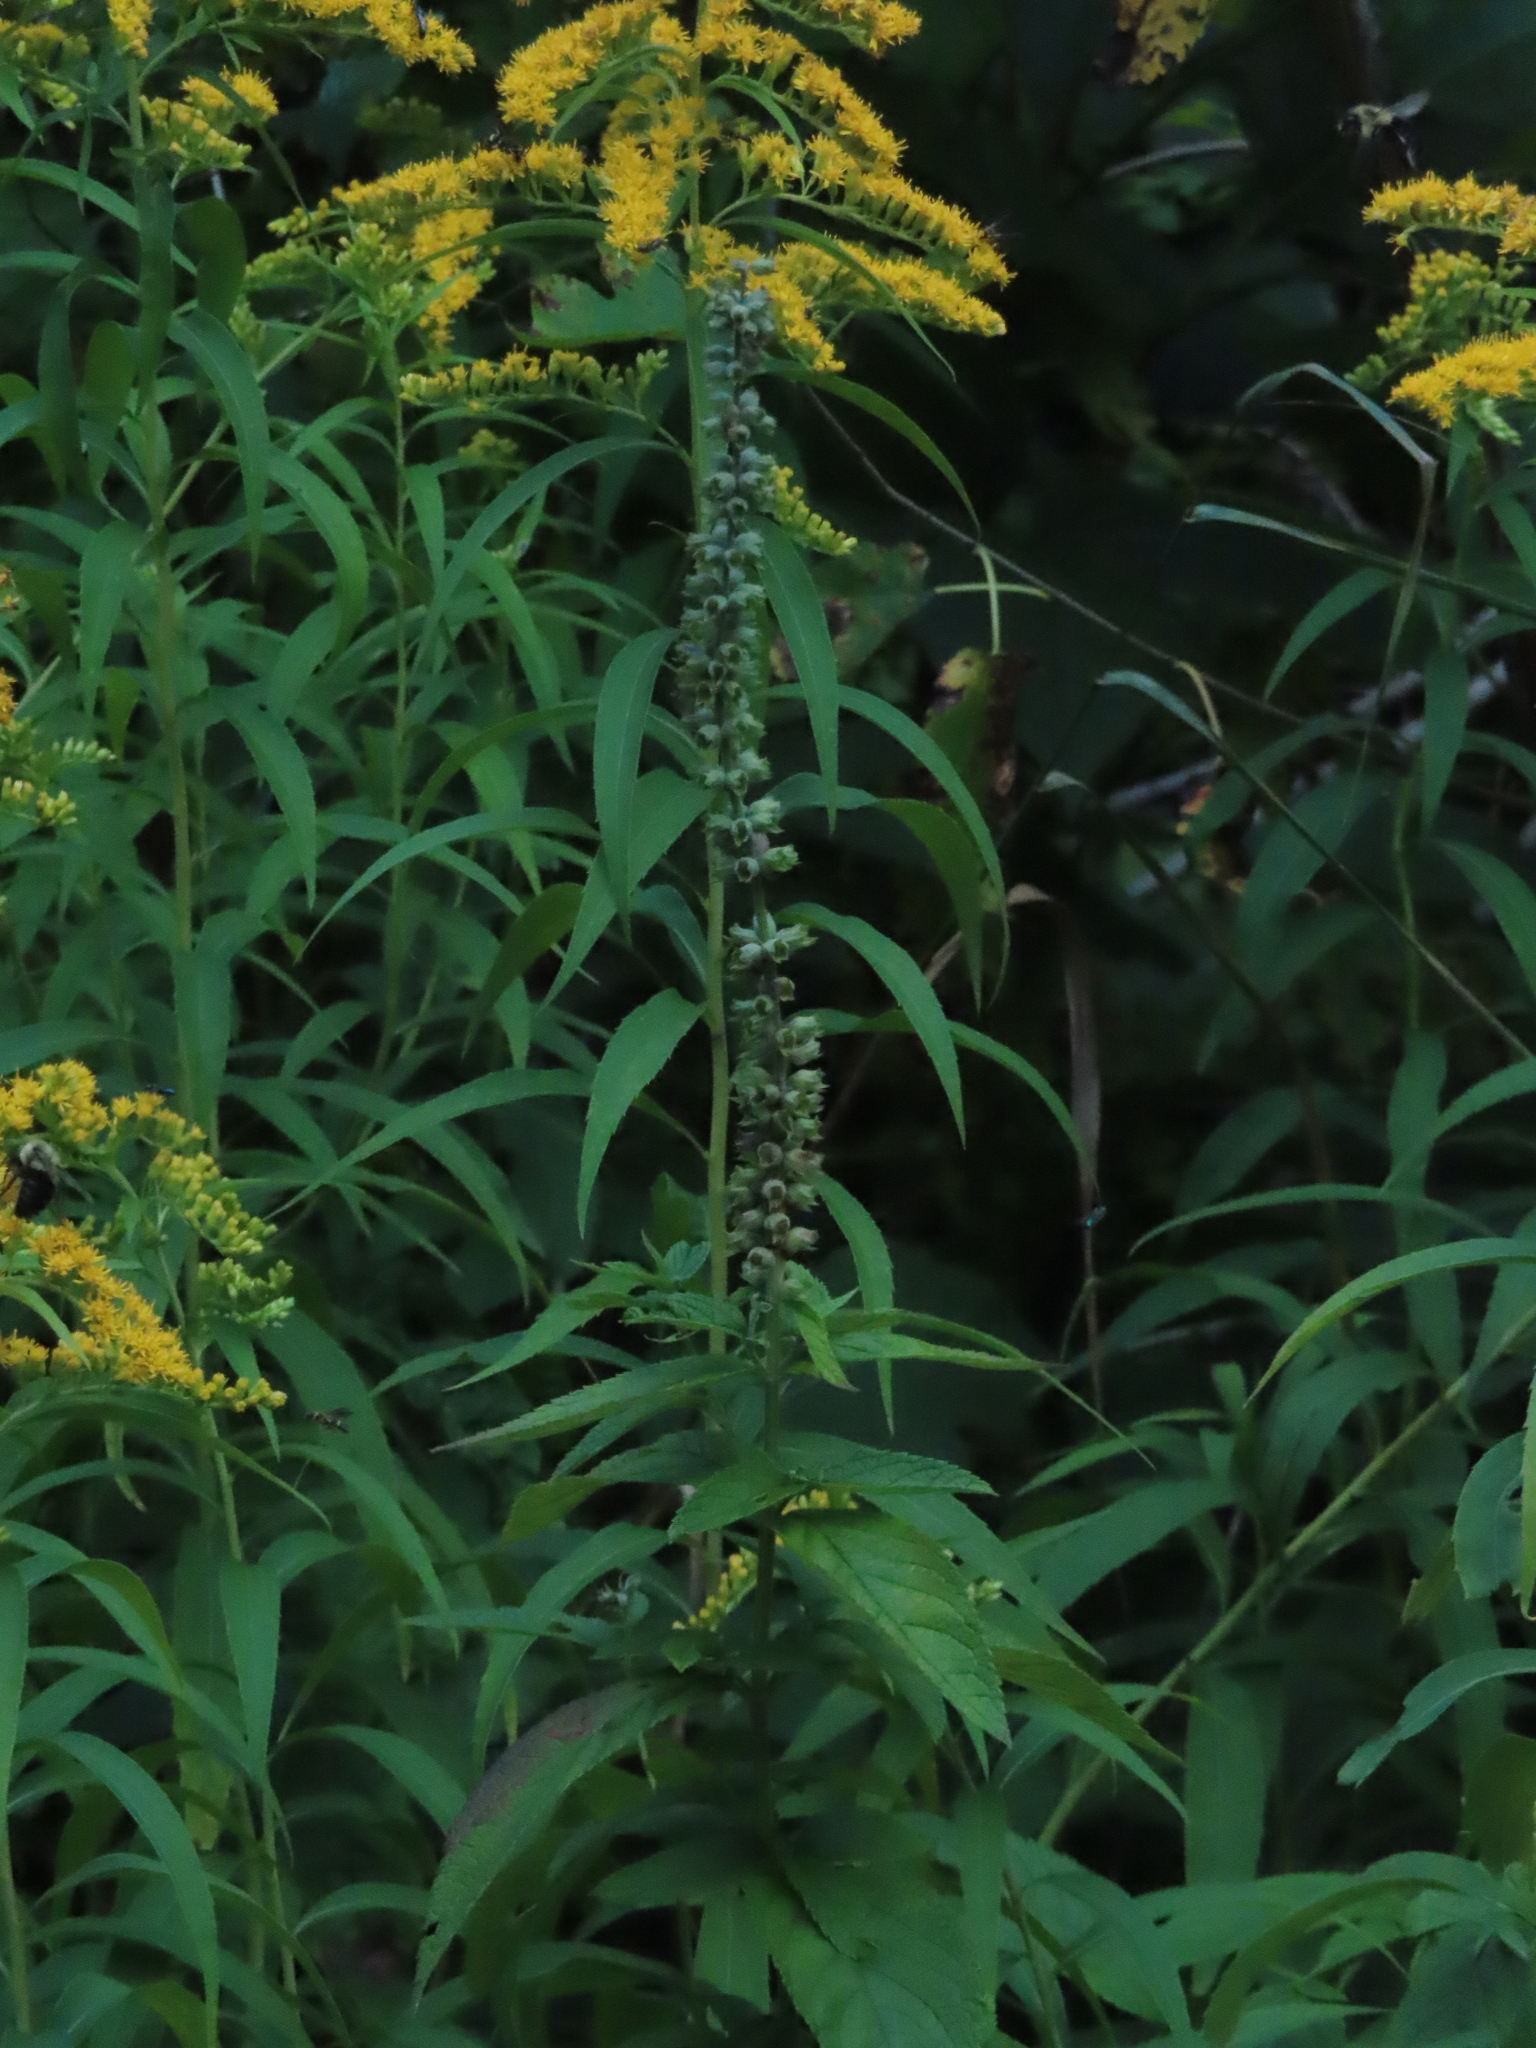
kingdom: Plantae
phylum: Tracheophyta
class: Magnoliopsida
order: Lamiales
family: Lamiaceae
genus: Teucrium
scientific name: Teucrium canadense
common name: American germander
